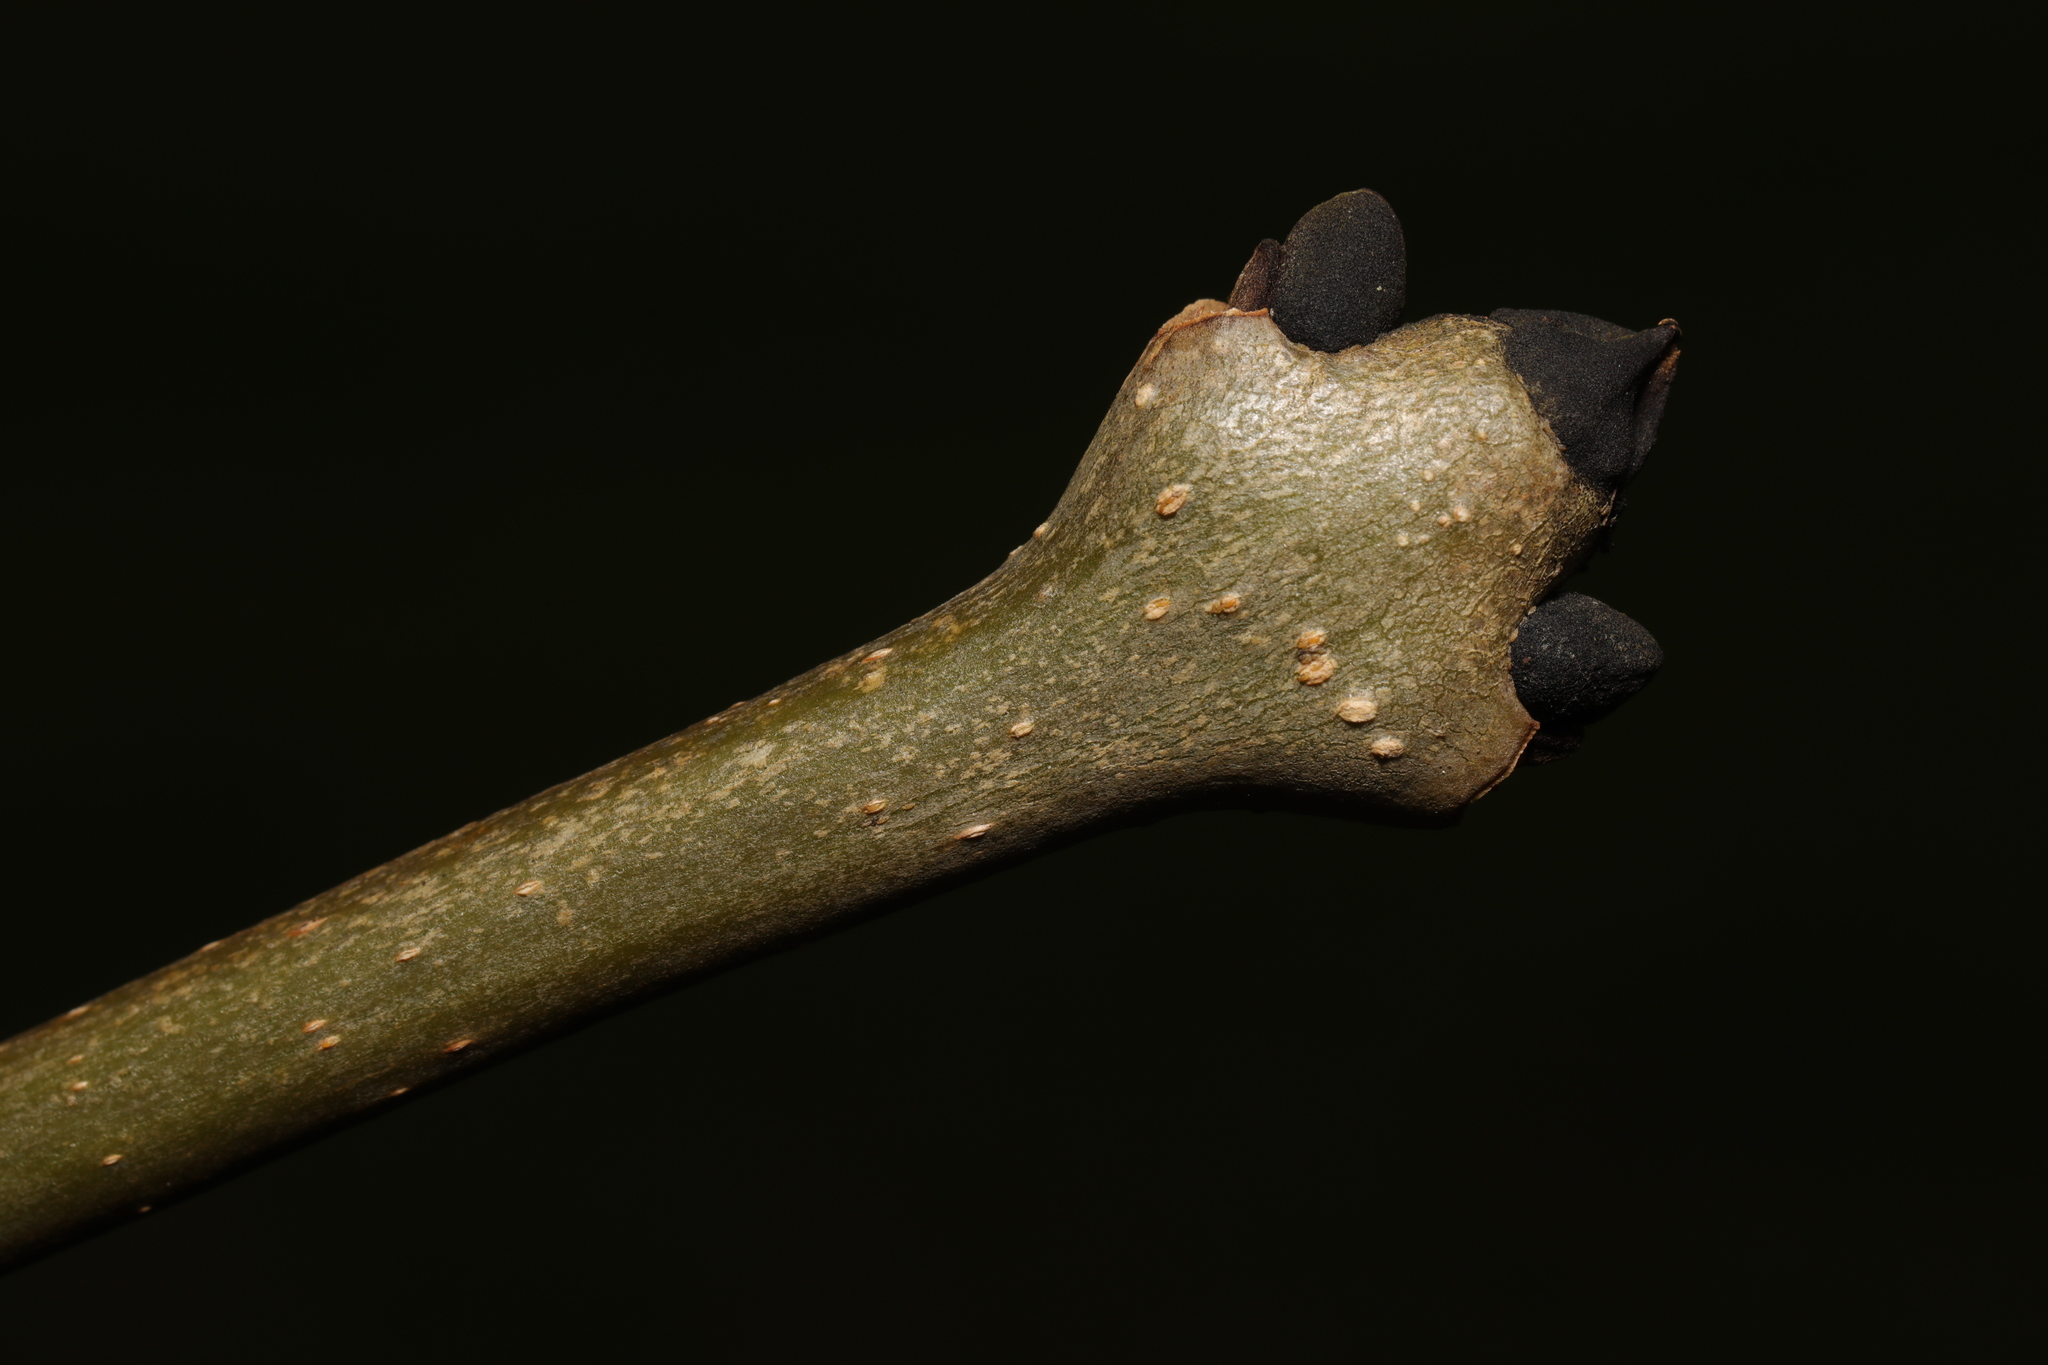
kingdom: Plantae
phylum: Tracheophyta
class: Magnoliopsida
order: Lamiales
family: Oleaceae
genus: Fraxinus
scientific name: Fraxinus excelsior
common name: European ash
